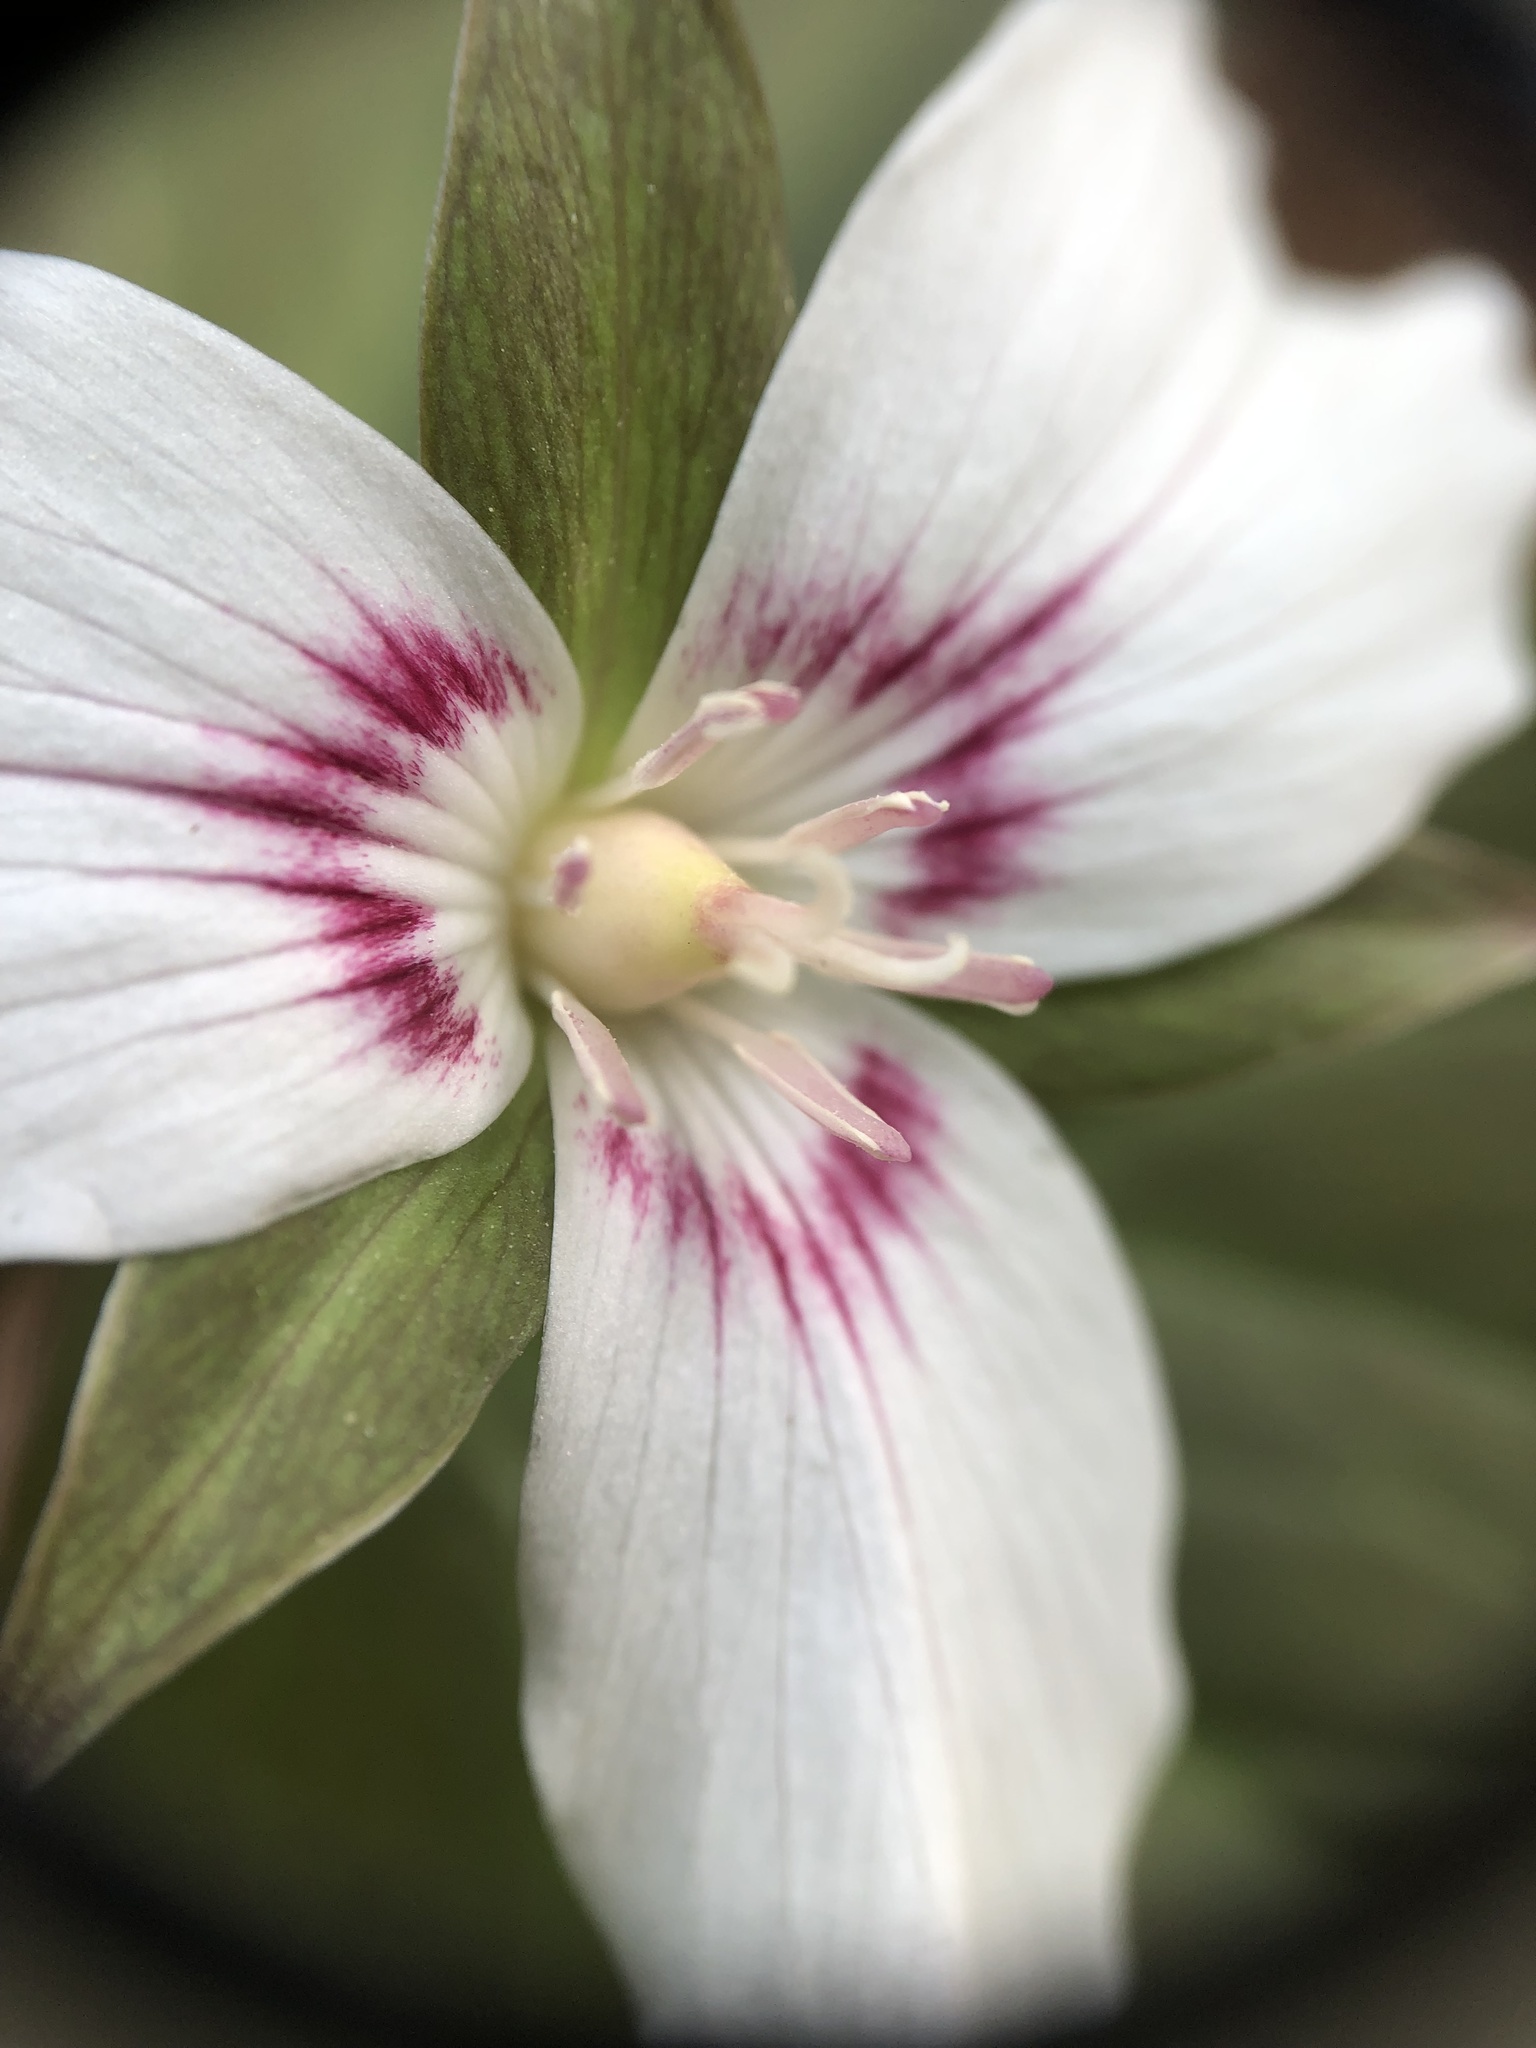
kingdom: Plantae
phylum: Tracheophyta
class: Liliopsida
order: Liliales
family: Melanthiaceae
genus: Trillium
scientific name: Trillium undulatum
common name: Paint trillium
